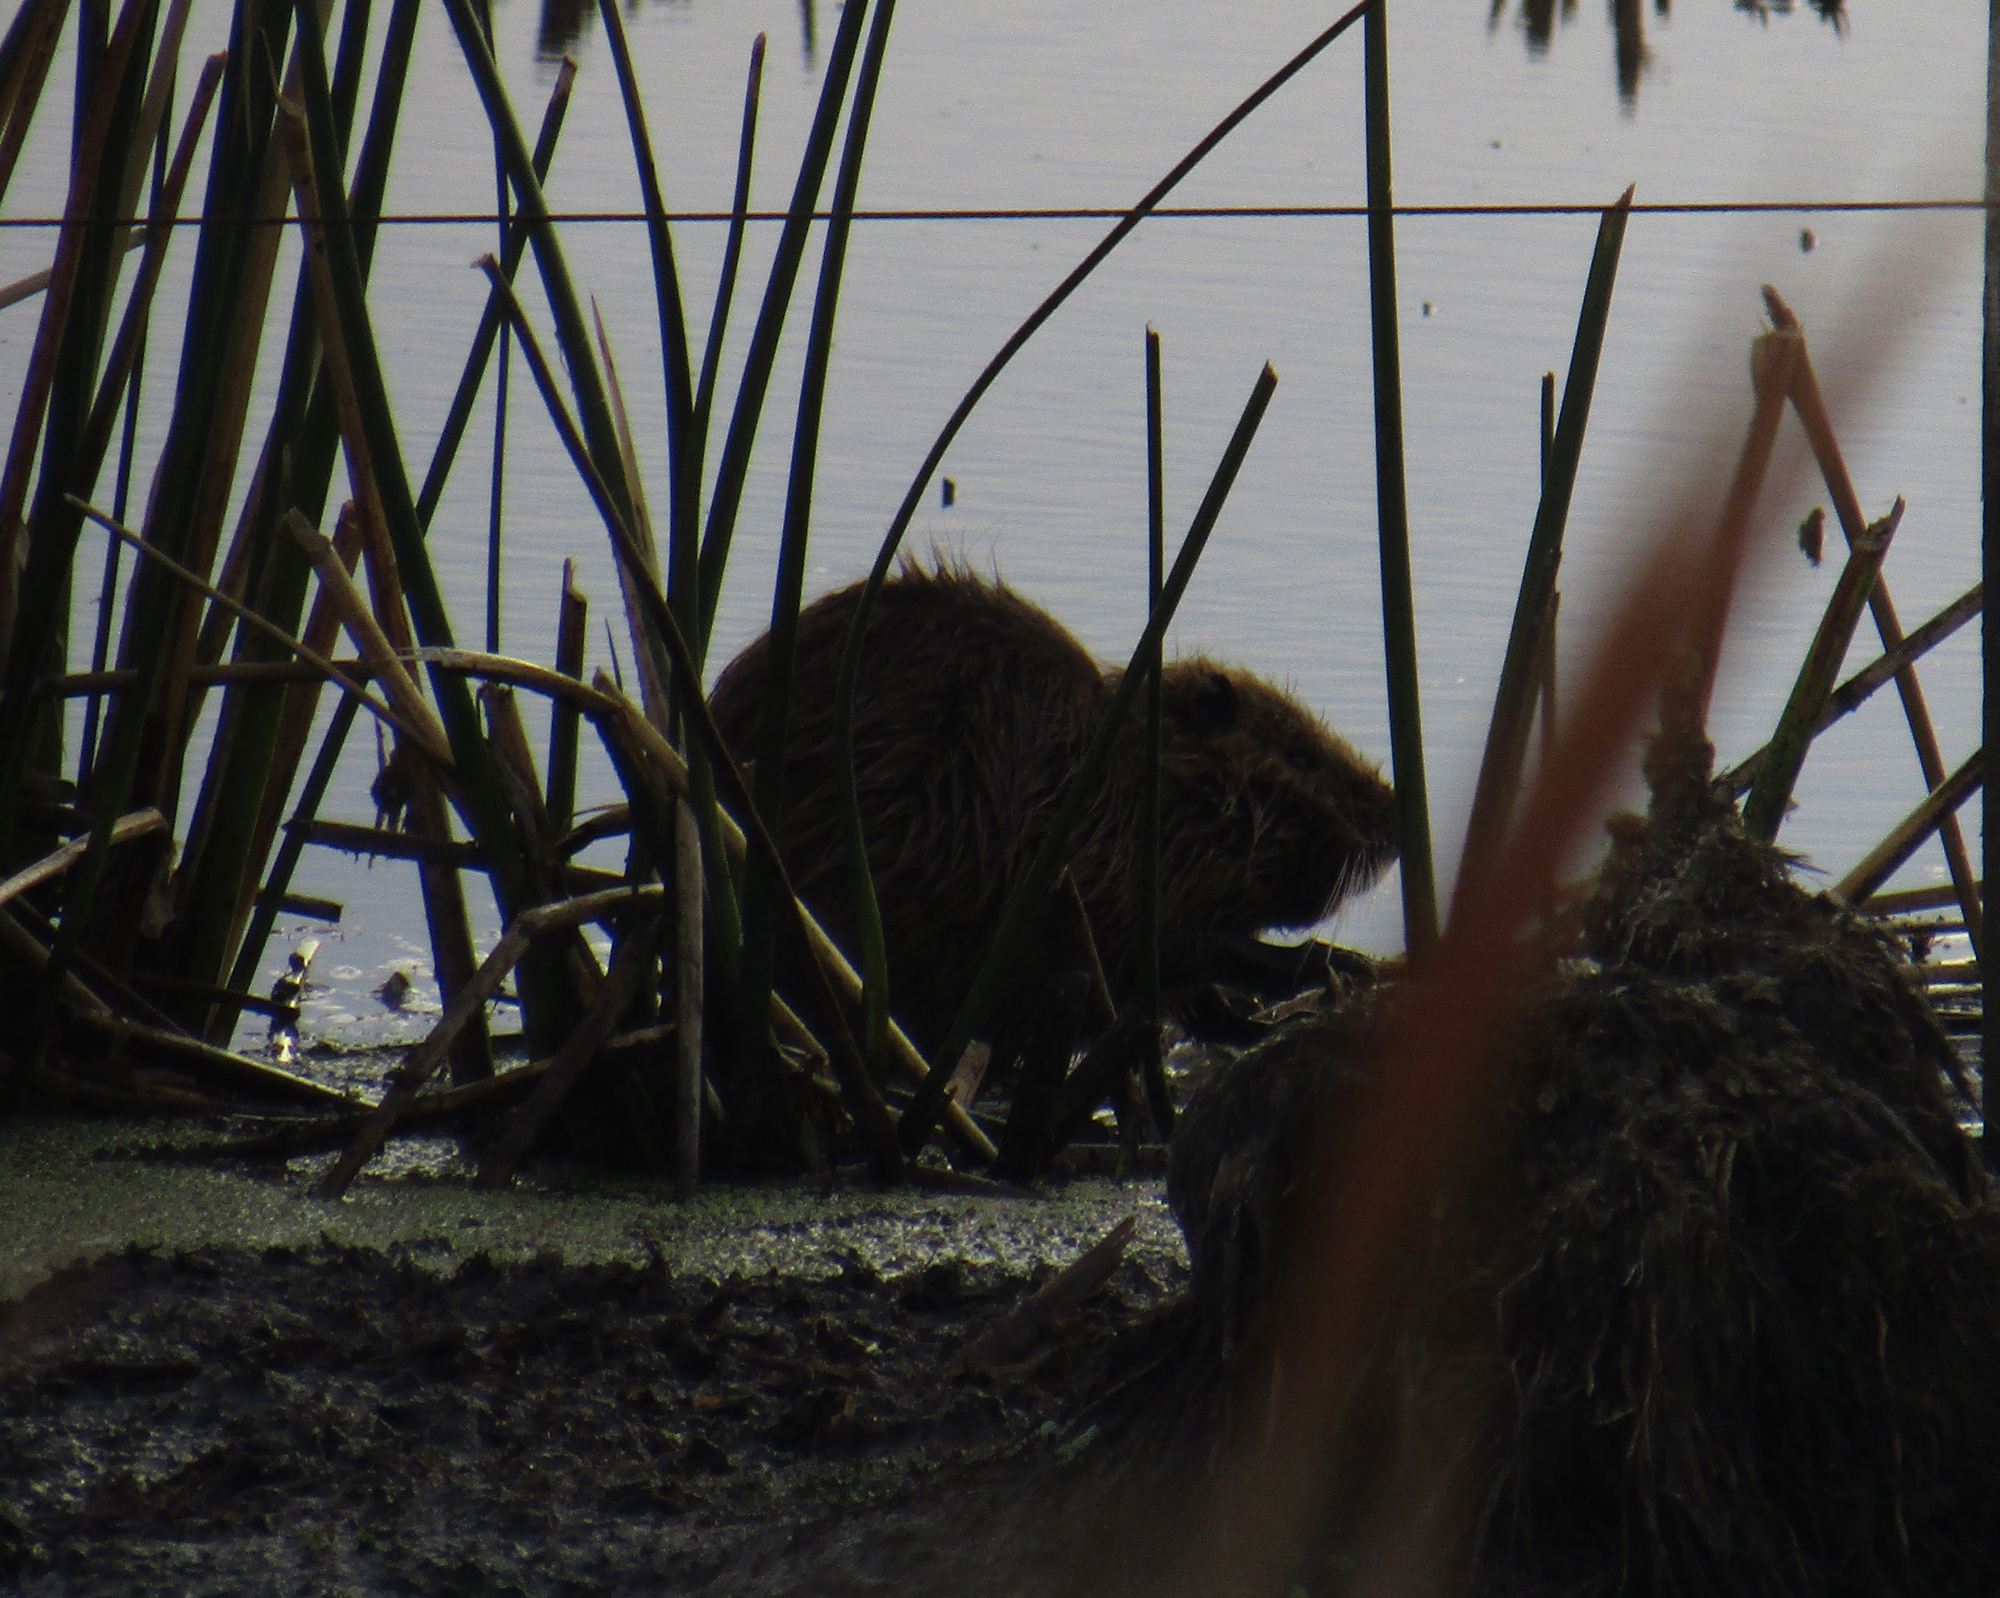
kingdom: Animalia
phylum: Chordata
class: Mammalia
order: Rodentia
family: Myocastoridae
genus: Myocastor
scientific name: Myocastor coypus
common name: Coypu
